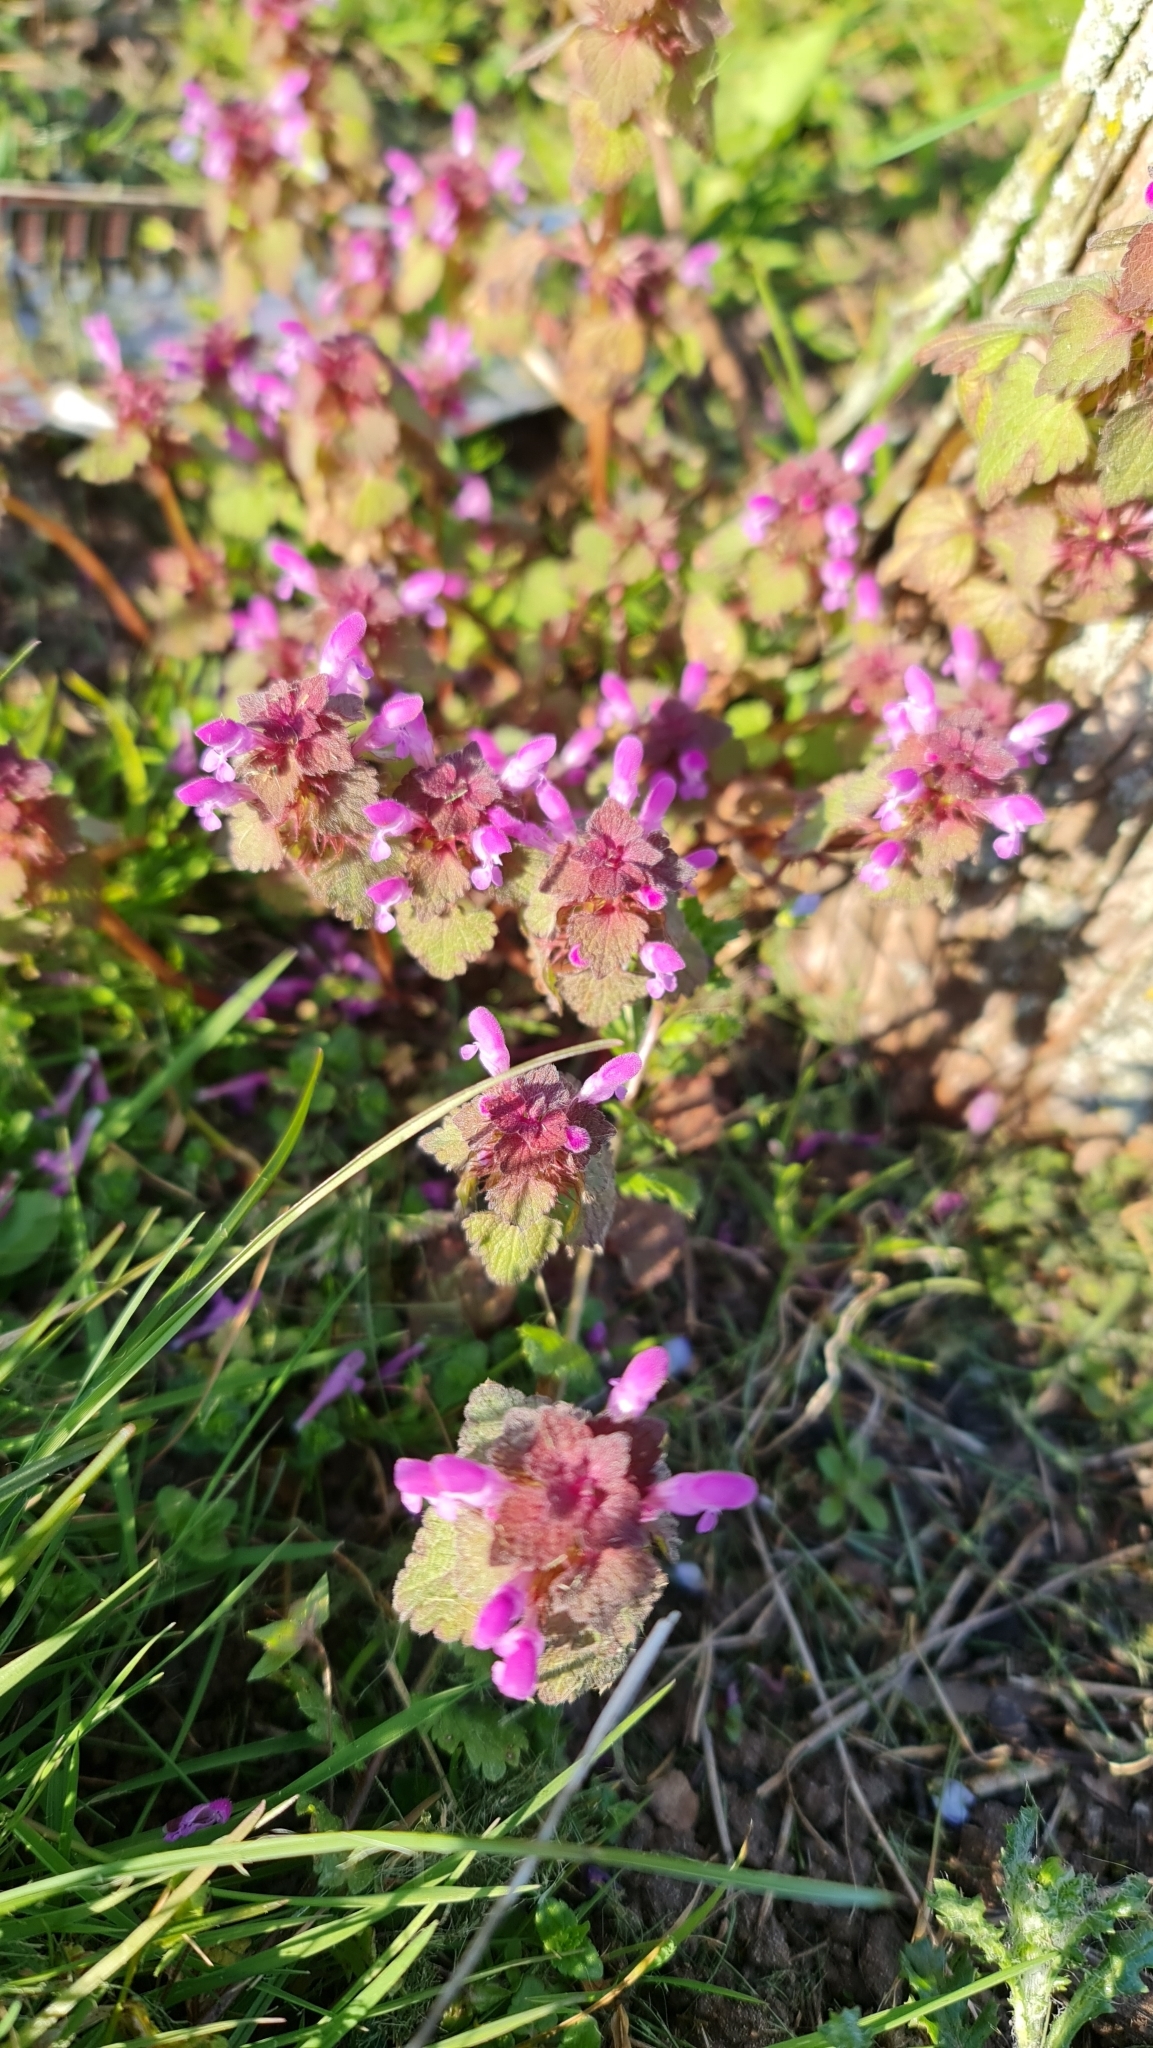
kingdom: Plantae
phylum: Tracheophyta
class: Magnoliopsida
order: Lamiales
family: Lamiaceae
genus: Lamium
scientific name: Lamium purpureum
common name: Red dead-nettle
